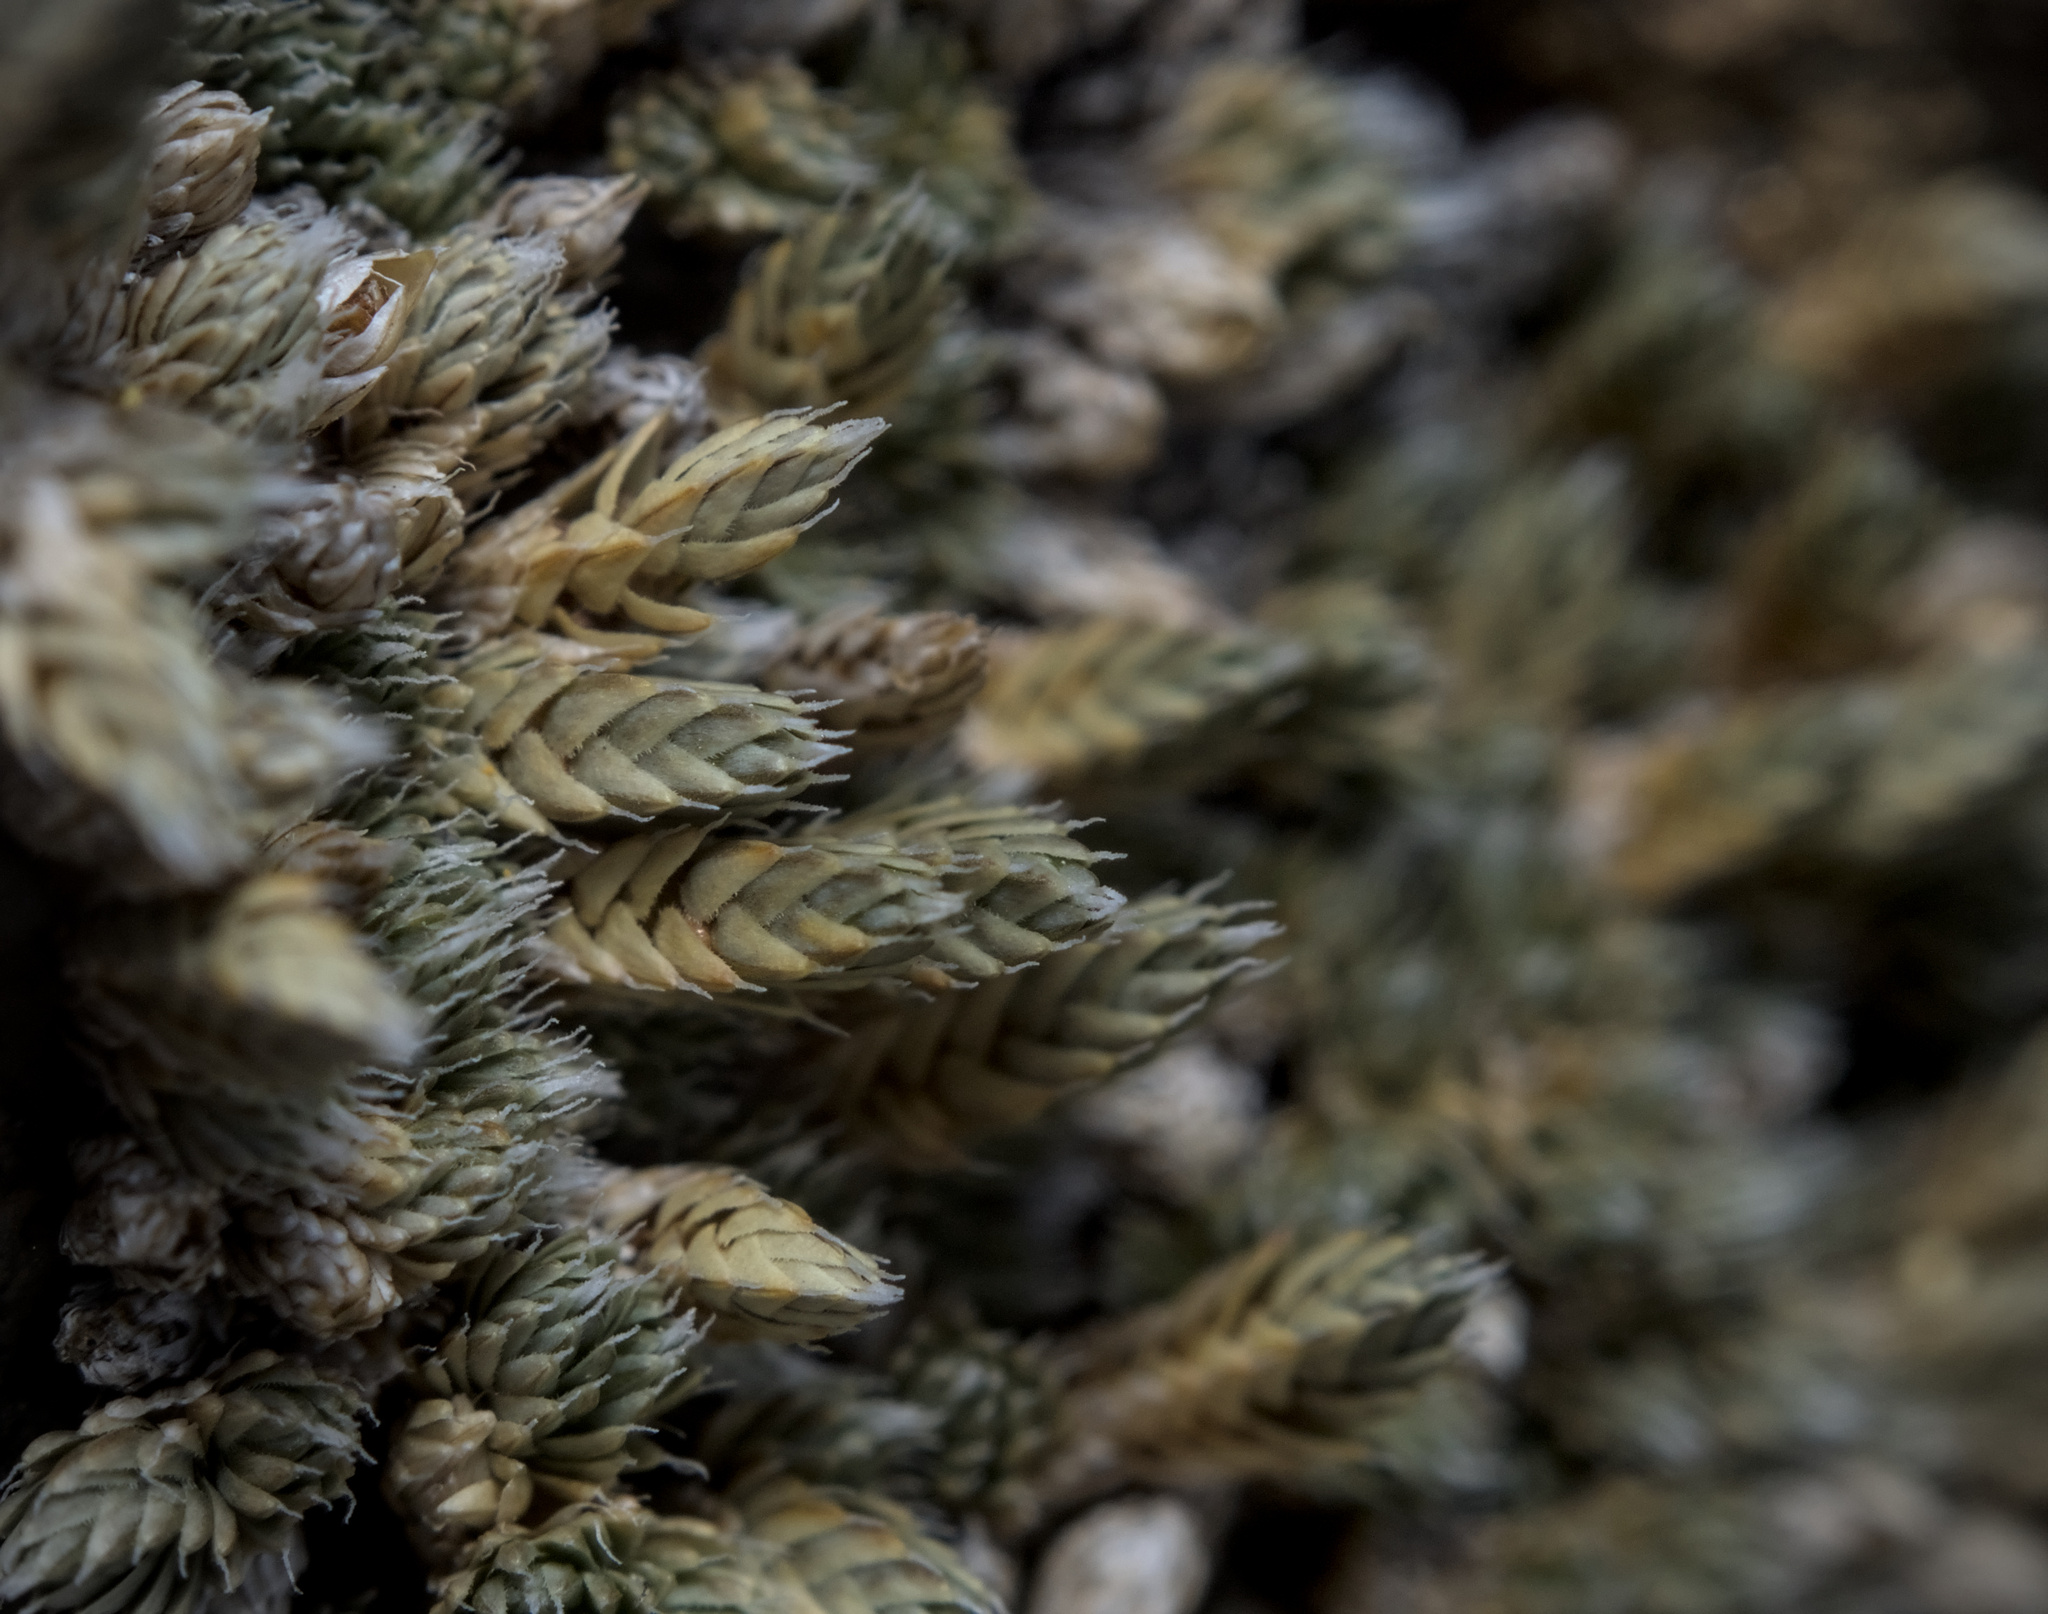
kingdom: Plantae
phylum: Tracheophyta
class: Lycopodiopsida
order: Selaginellales
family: Selaginellaceae
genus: Selaginella
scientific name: Selaginella asprella
